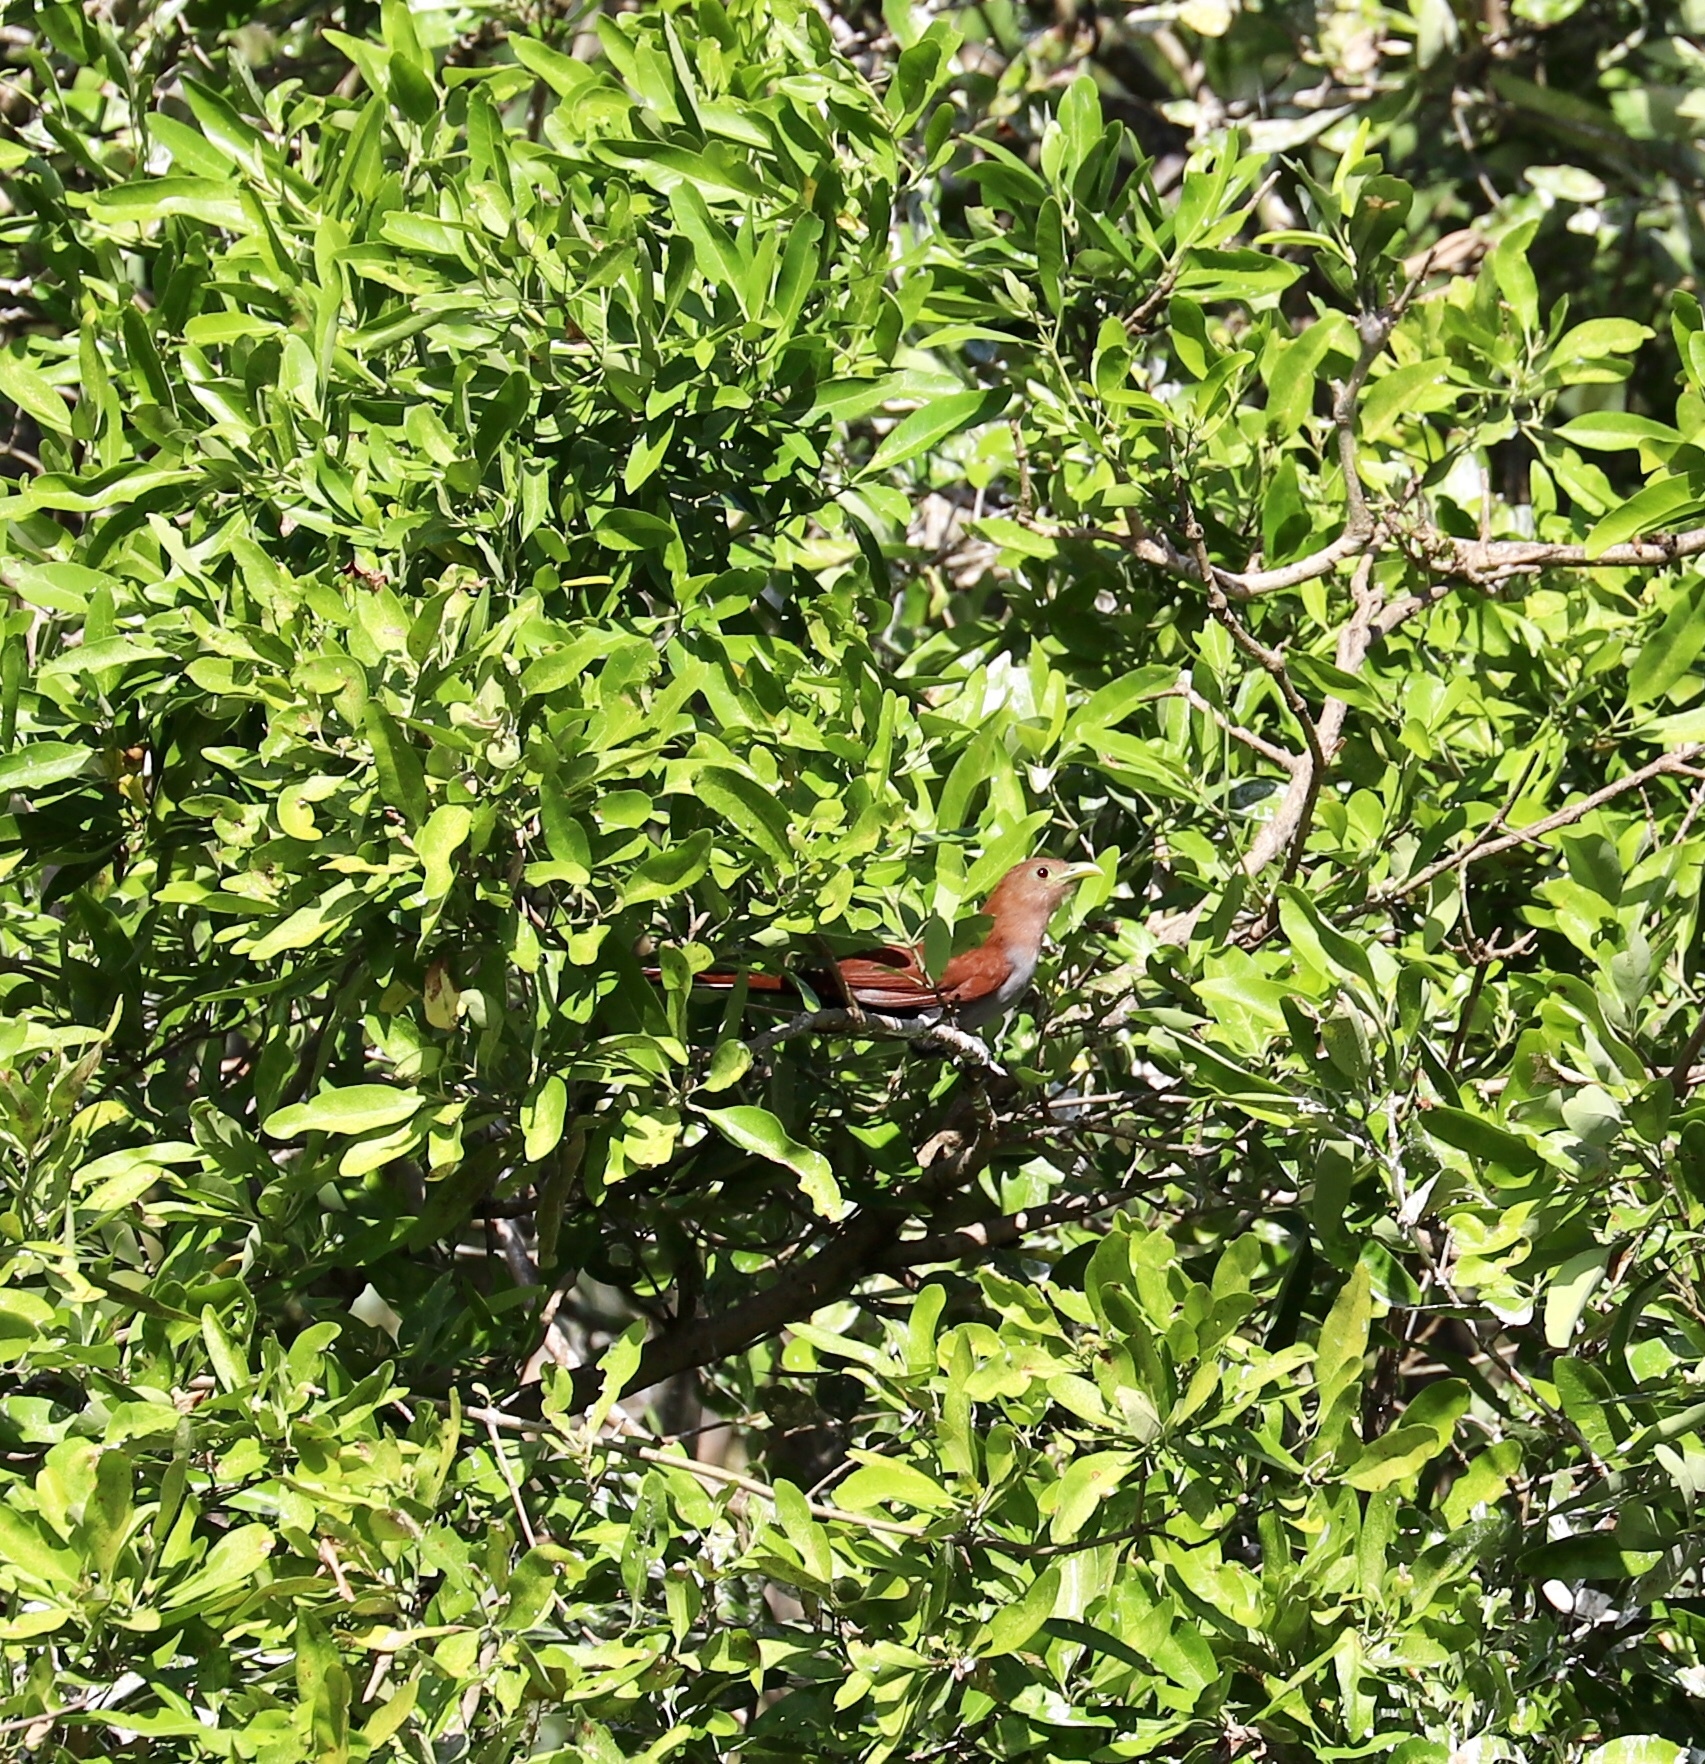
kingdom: Animalia
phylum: Chordata
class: Aves
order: Cuculiformes
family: Cuculidae
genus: Piaya
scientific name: Piaya cayana
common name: Squirrel cuckoo
